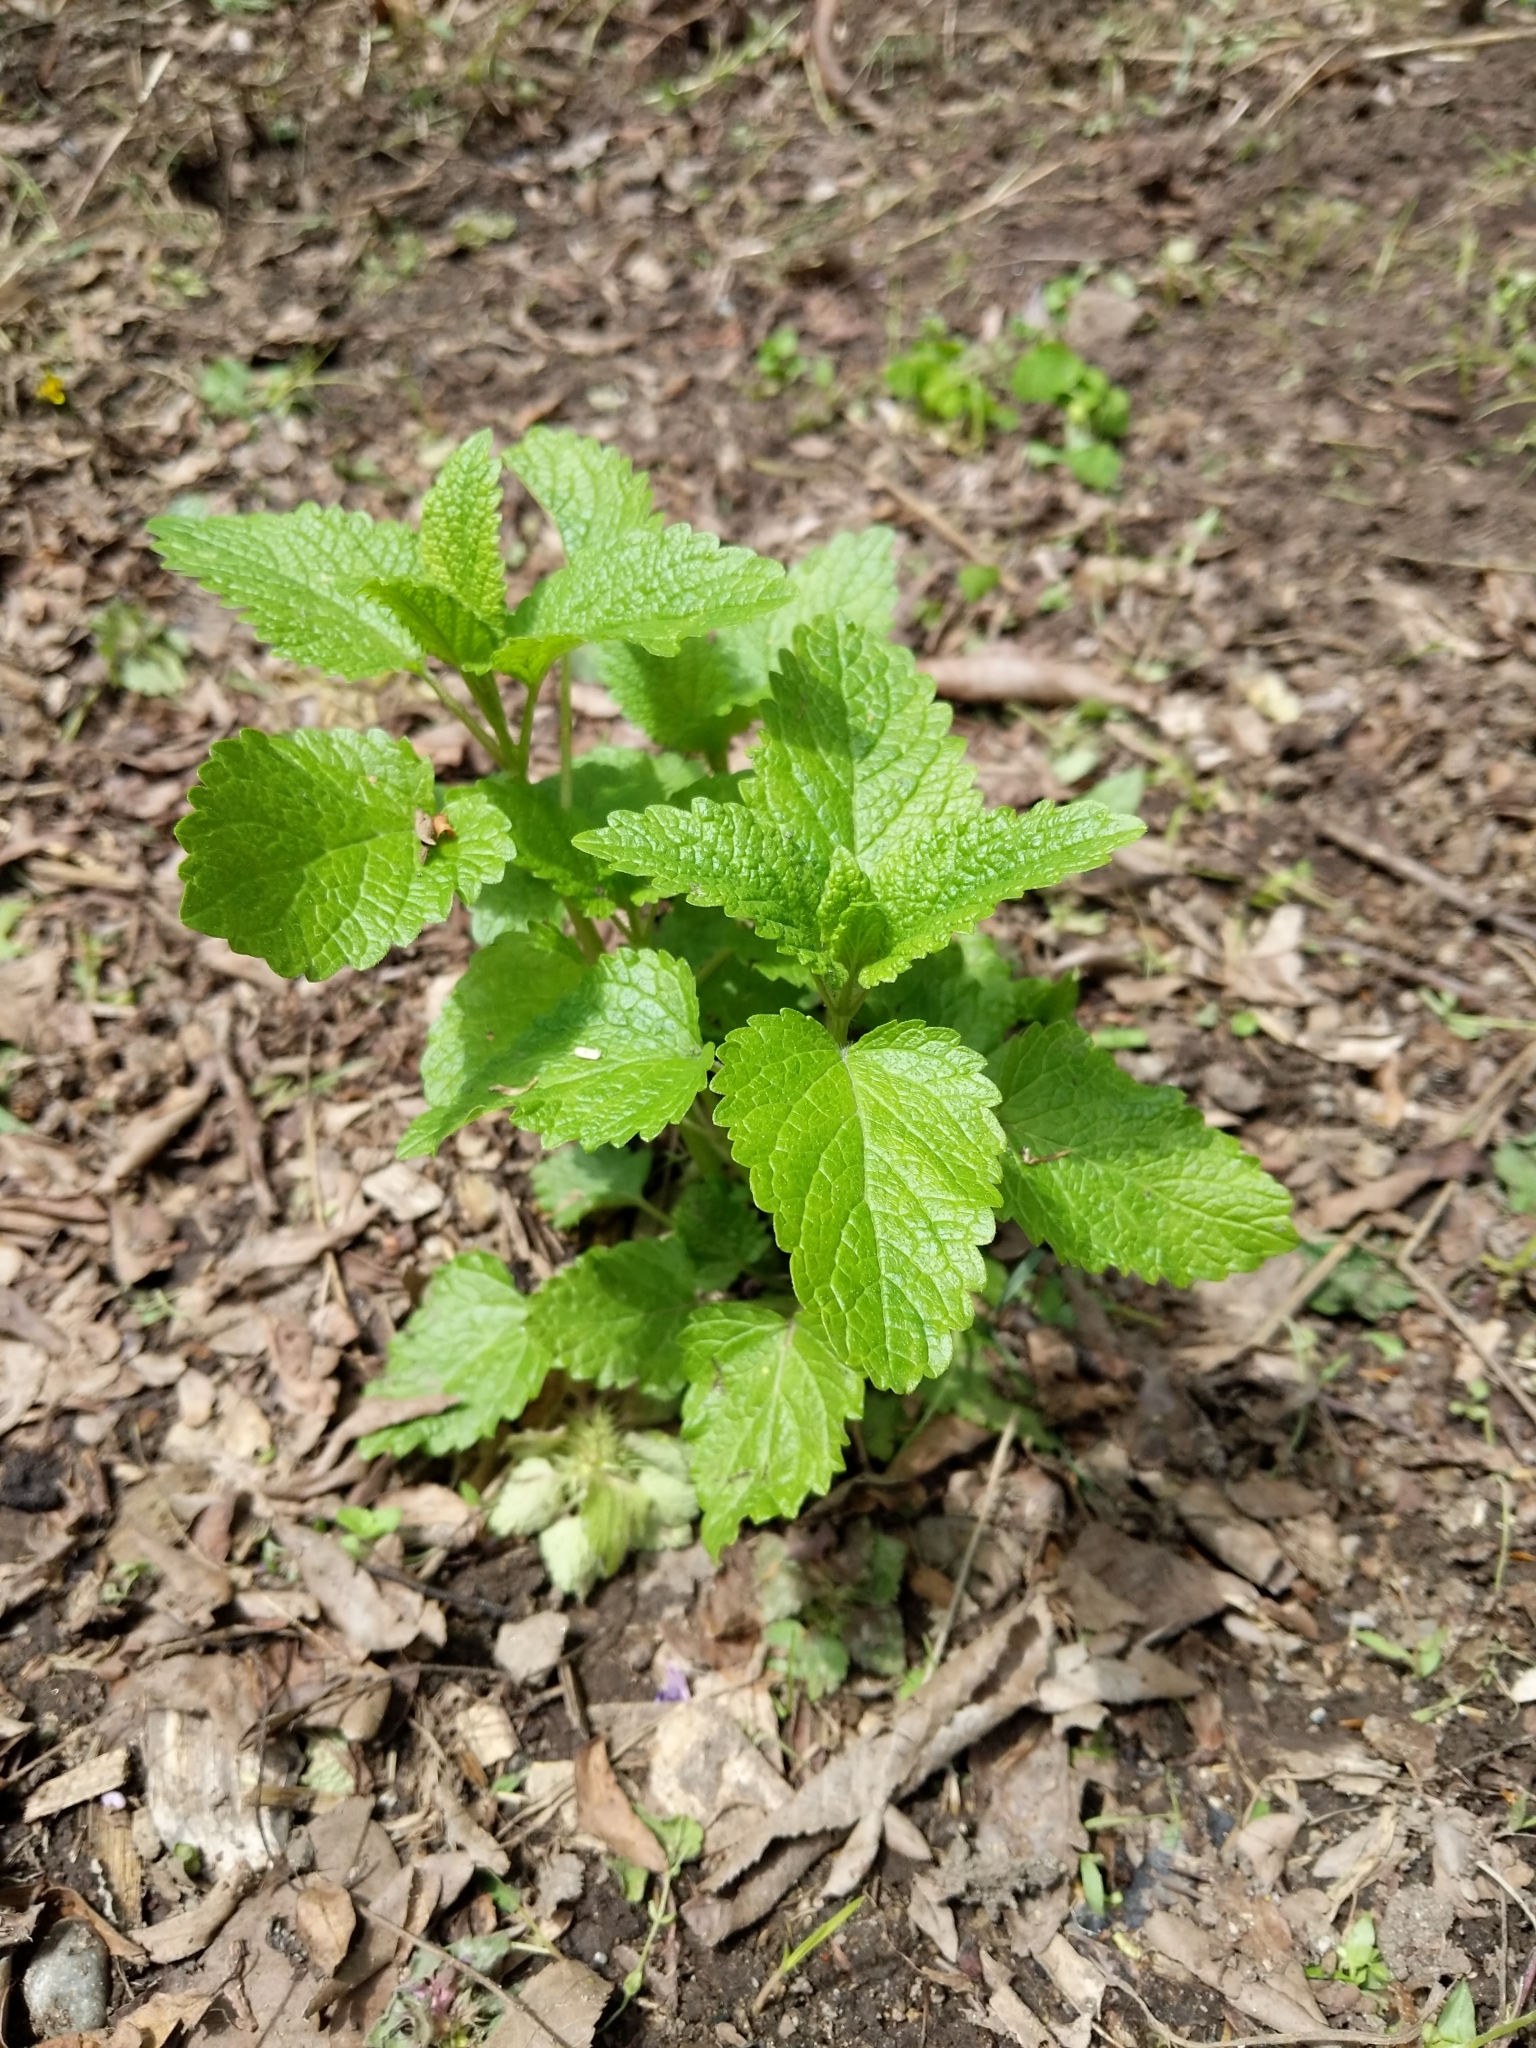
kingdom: Plantae
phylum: Tracheophyta
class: Magnoliopsida
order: Lamiales
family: Lamiaceae
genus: Melissa
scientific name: Melissa officinalis
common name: Balm
